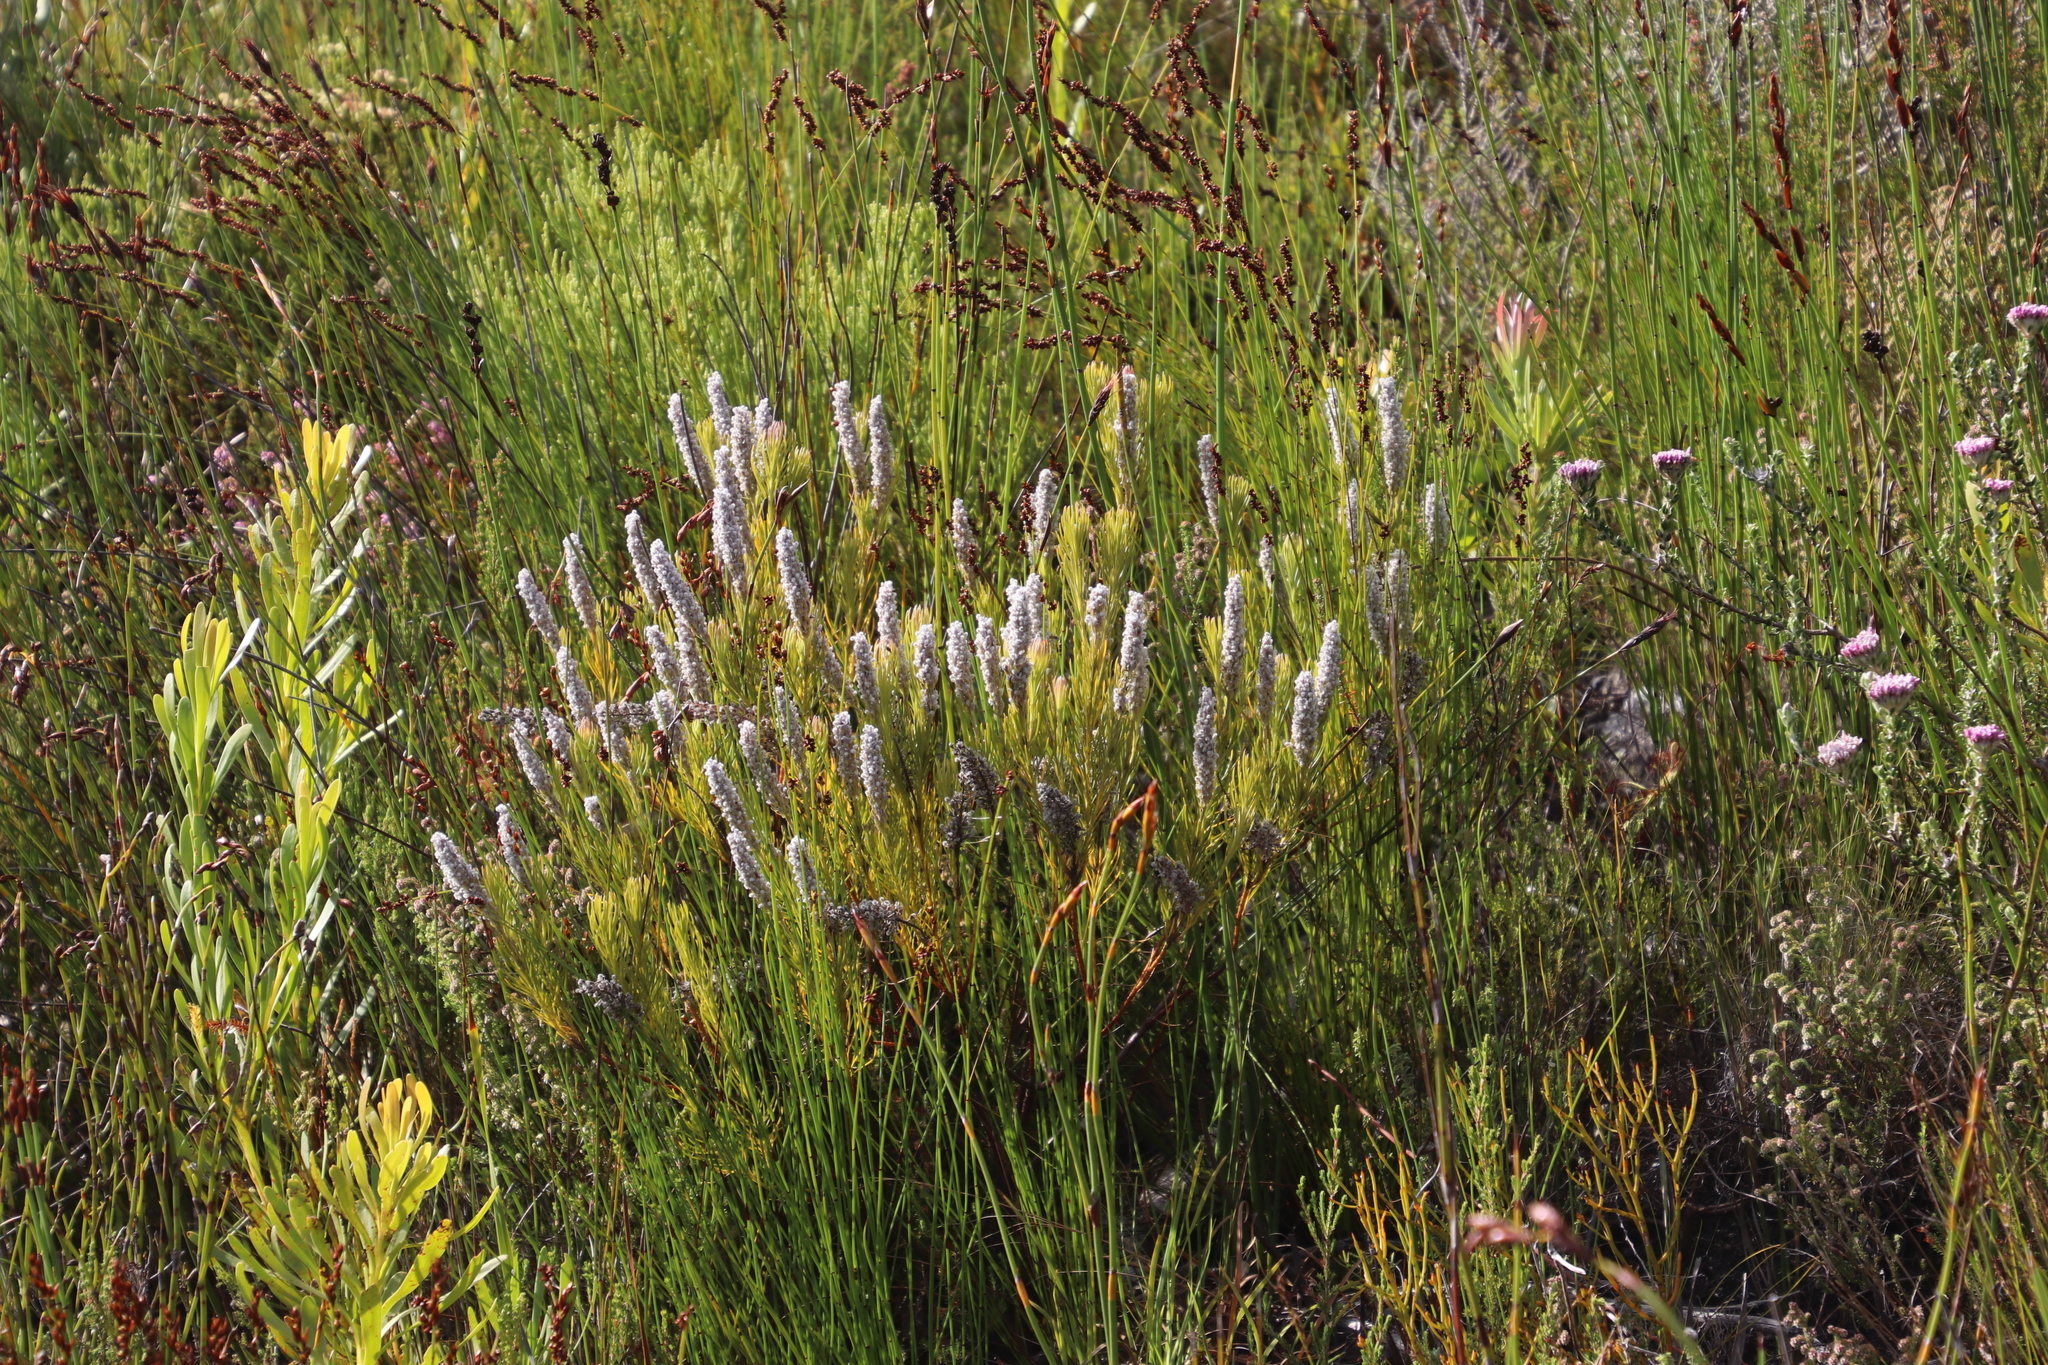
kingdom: Plantae
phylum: Tracheophyta
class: Magnoliopsida
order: Proteales
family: Proteaceae
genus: Spatalla
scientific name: Spatalla curvifolia
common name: White-stalked spoon
